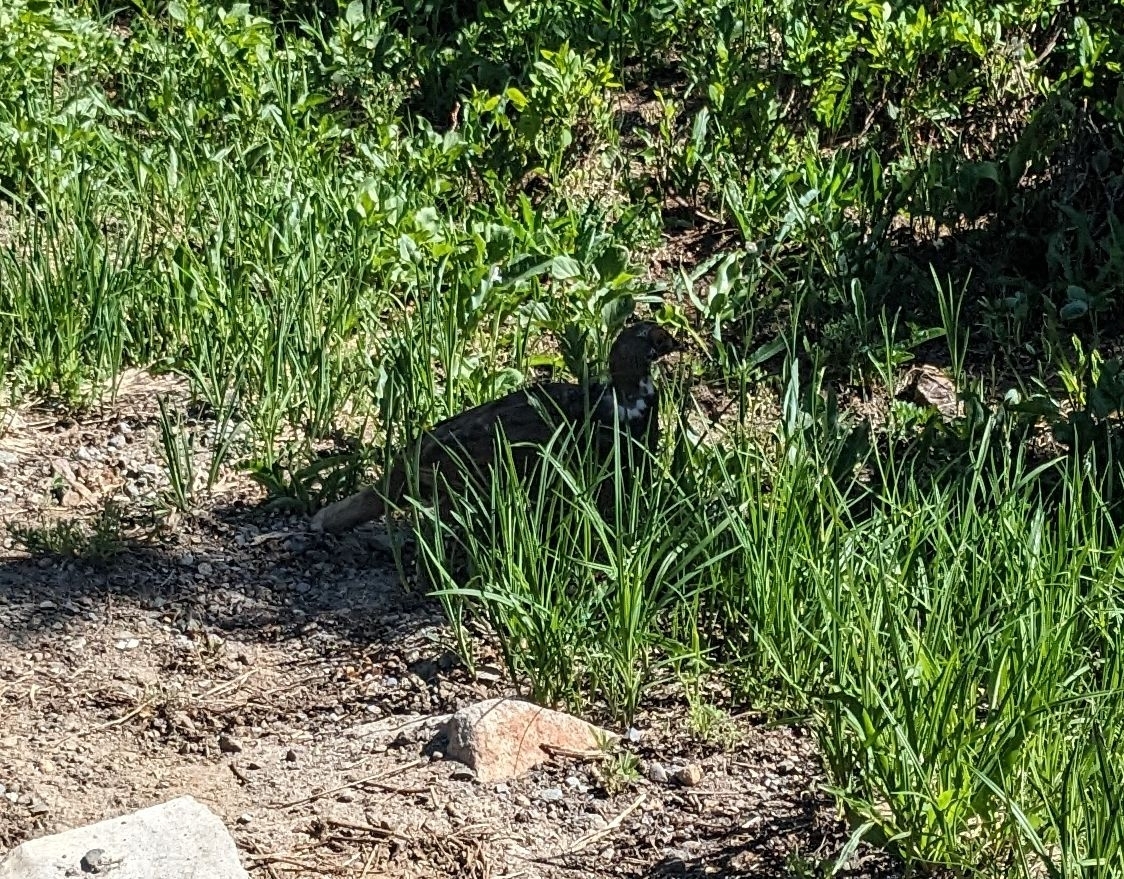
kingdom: Animalia
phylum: Chordata
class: Aves
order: Galliformes
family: Phasianidae
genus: Dendragapus
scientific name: Dendragapus fuliginosus
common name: Sooty grouse
